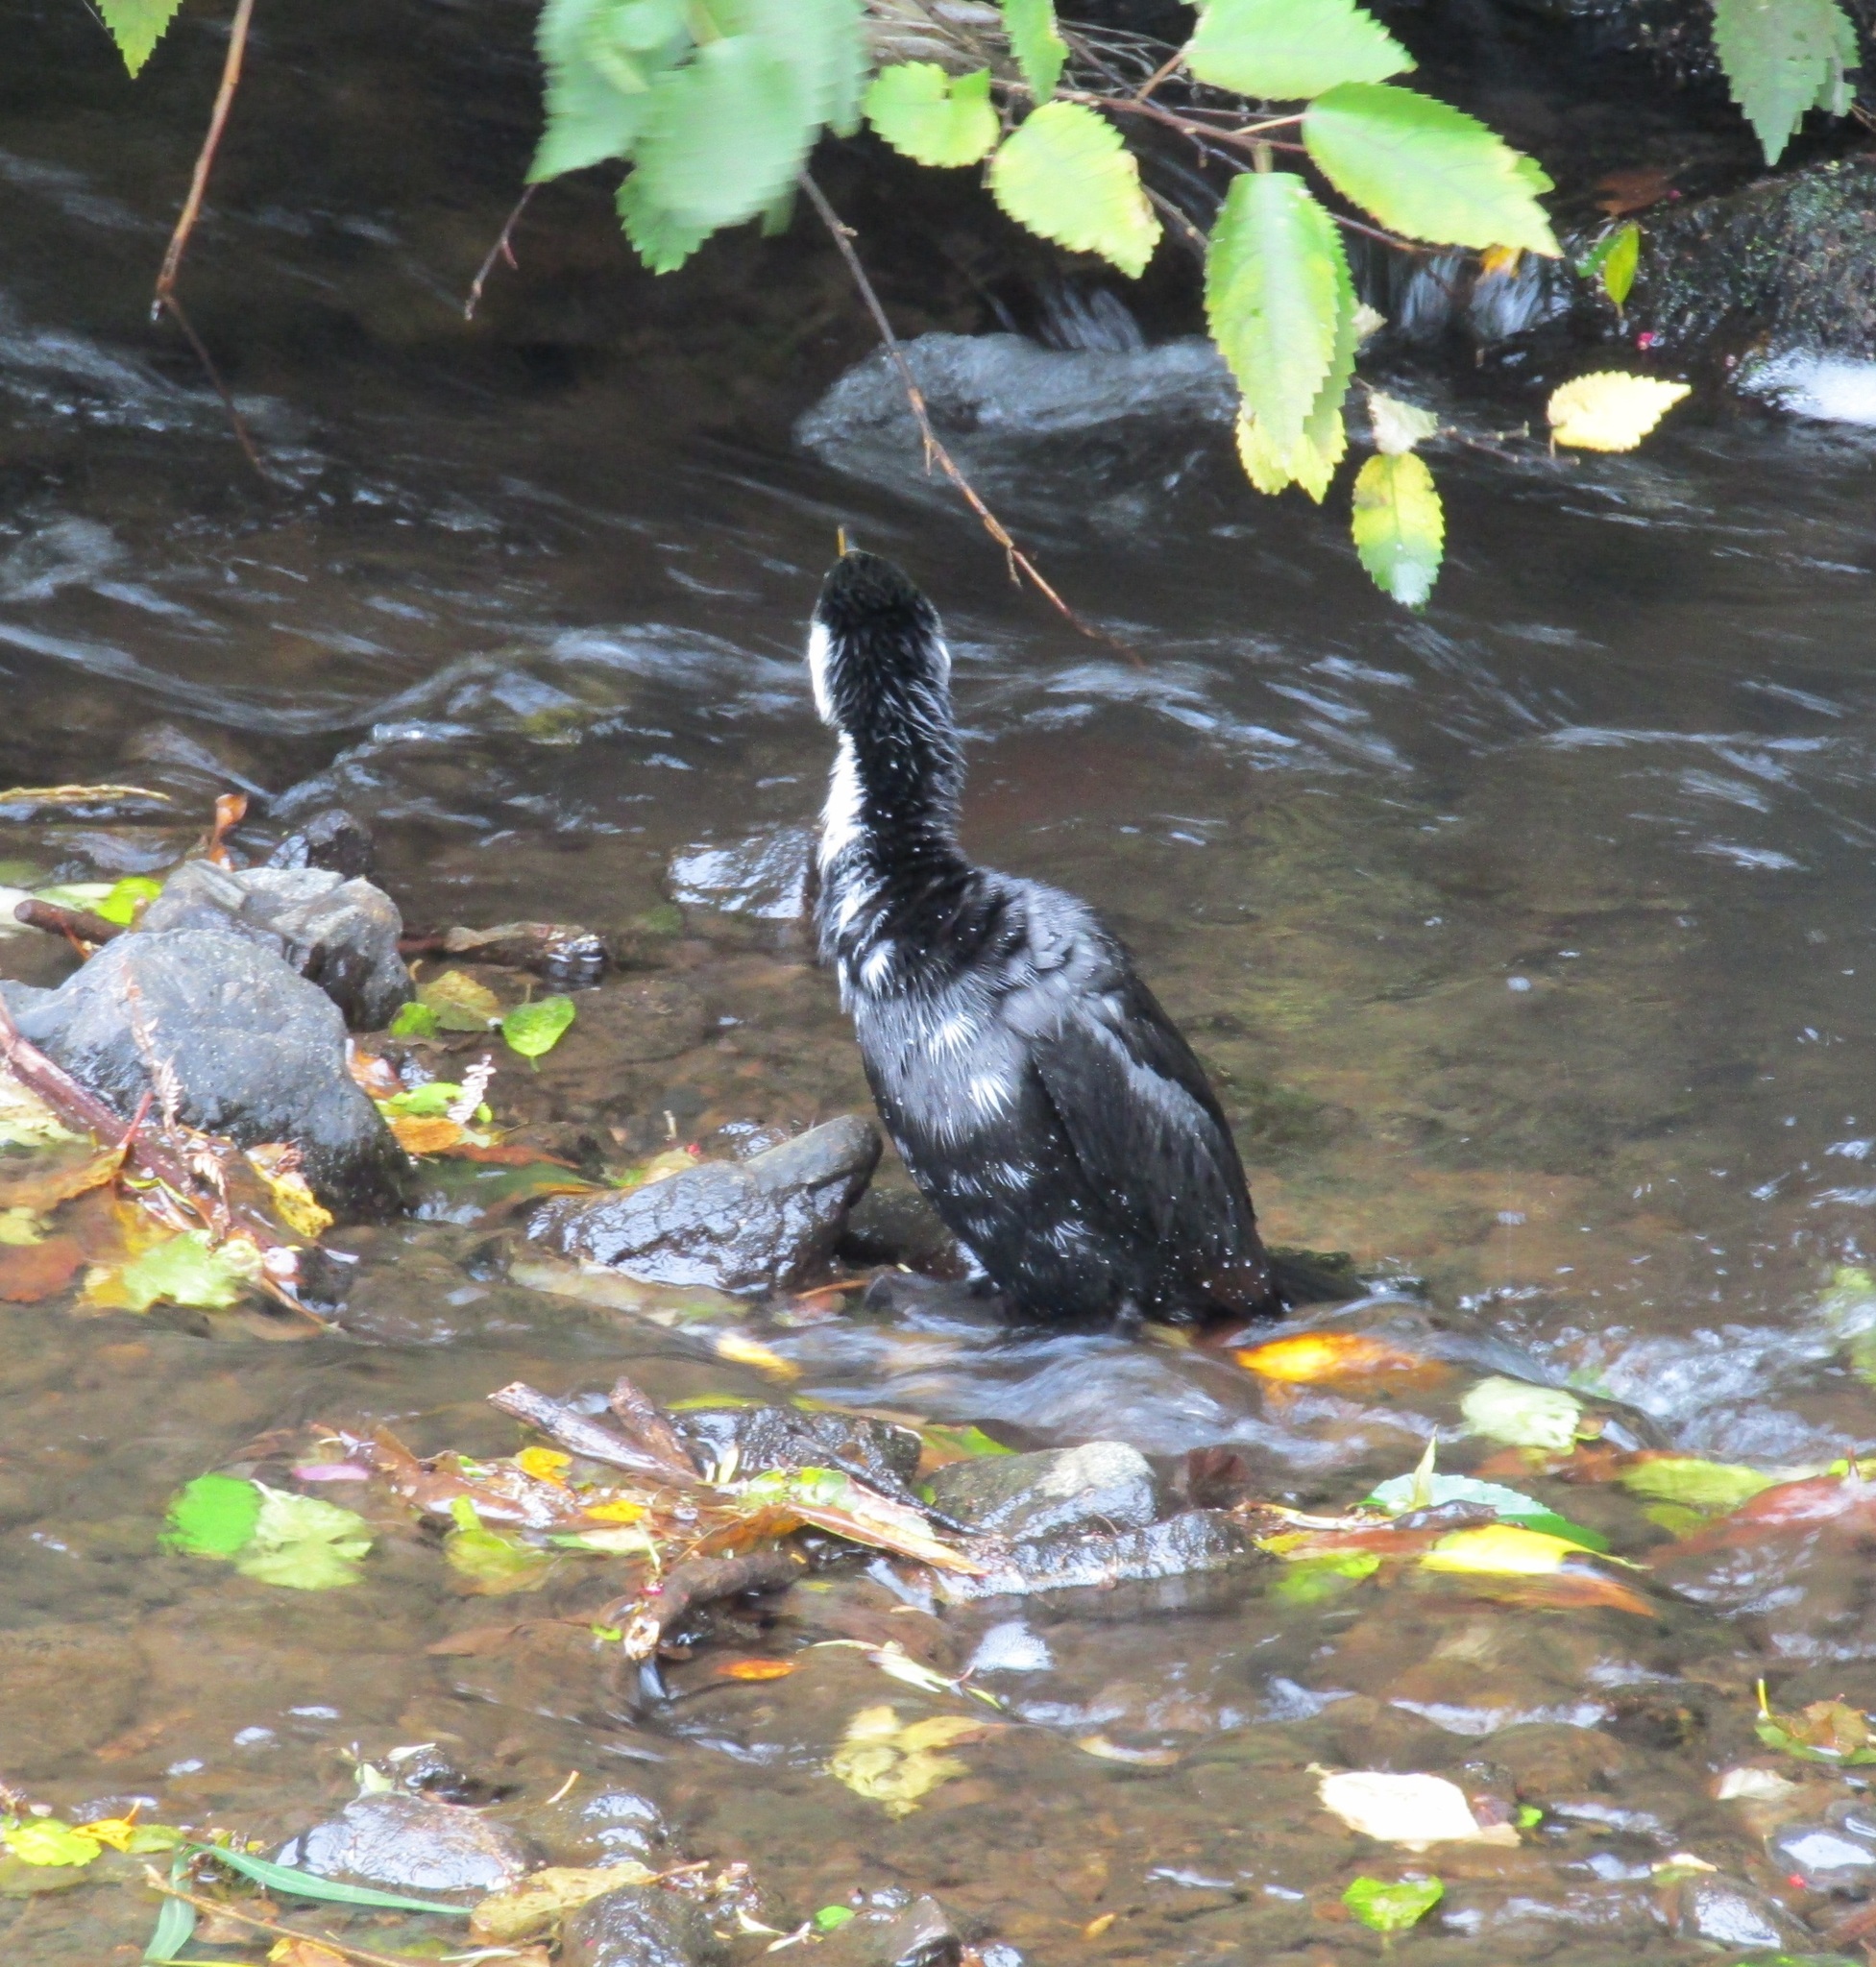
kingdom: Animalia
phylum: Chordata
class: Aves
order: Suliformes
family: Phalacrocoracidae
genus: Microcarbo
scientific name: Microcarbo melanoleucos
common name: Little pied cormorant
